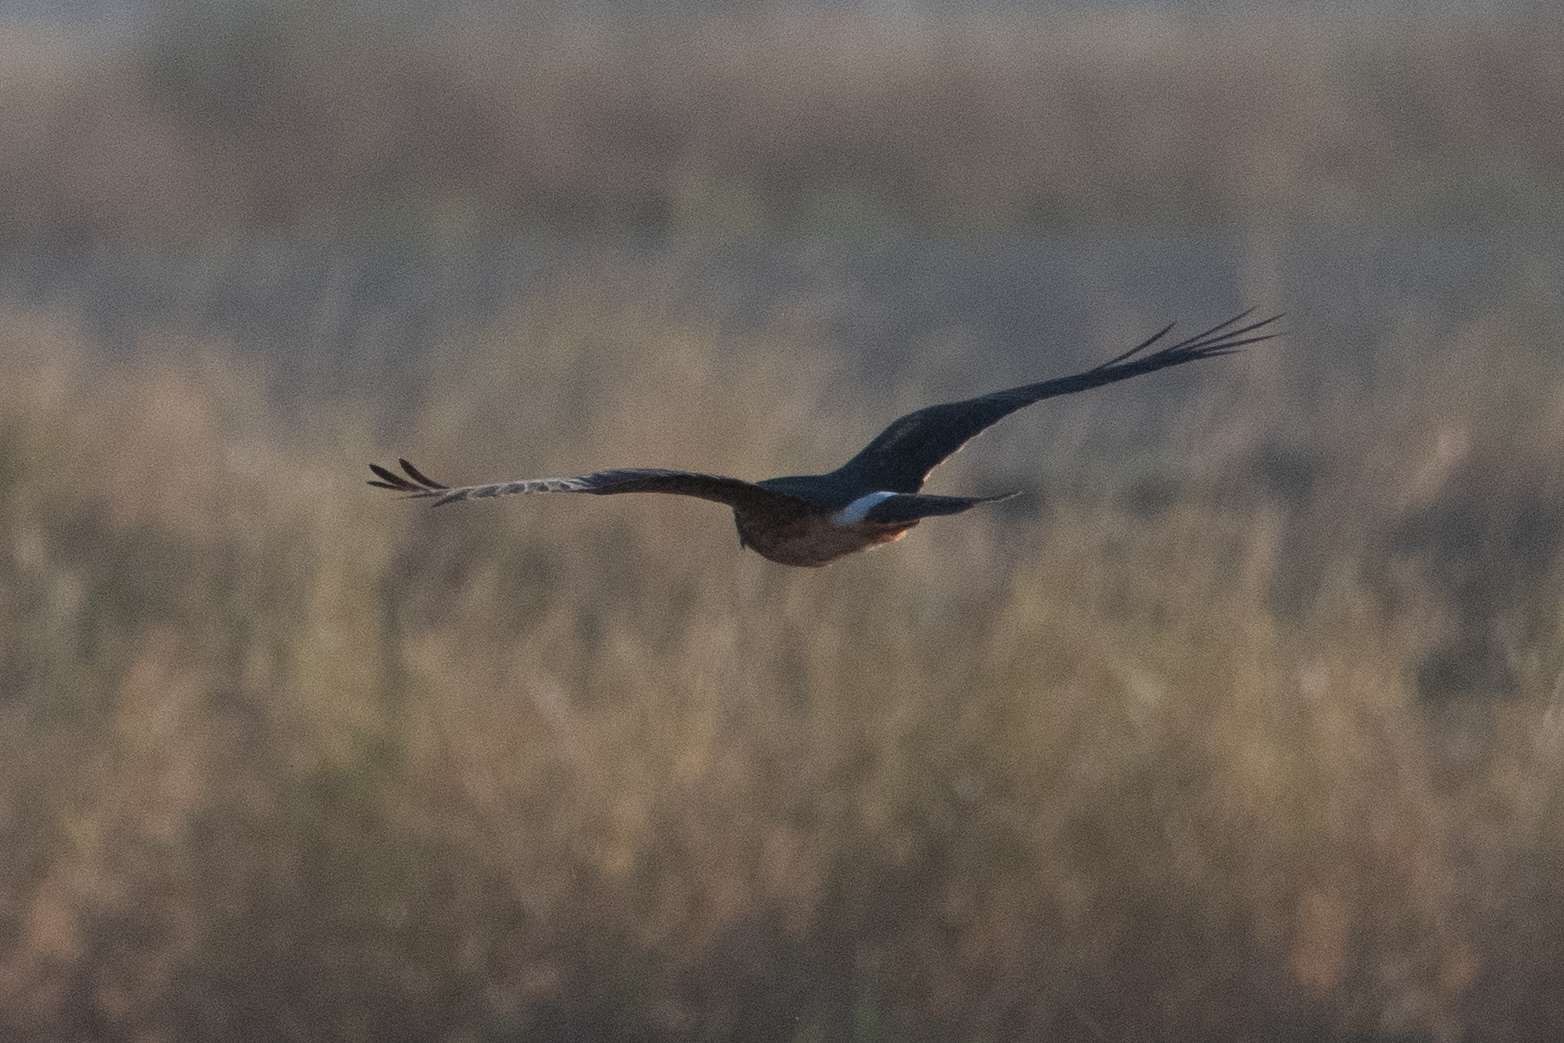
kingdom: Animalia
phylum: Chordata
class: Aves
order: Accipitriformes
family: Accipitridae
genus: Circus
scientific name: Circus cyaneus
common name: Hen harrier
